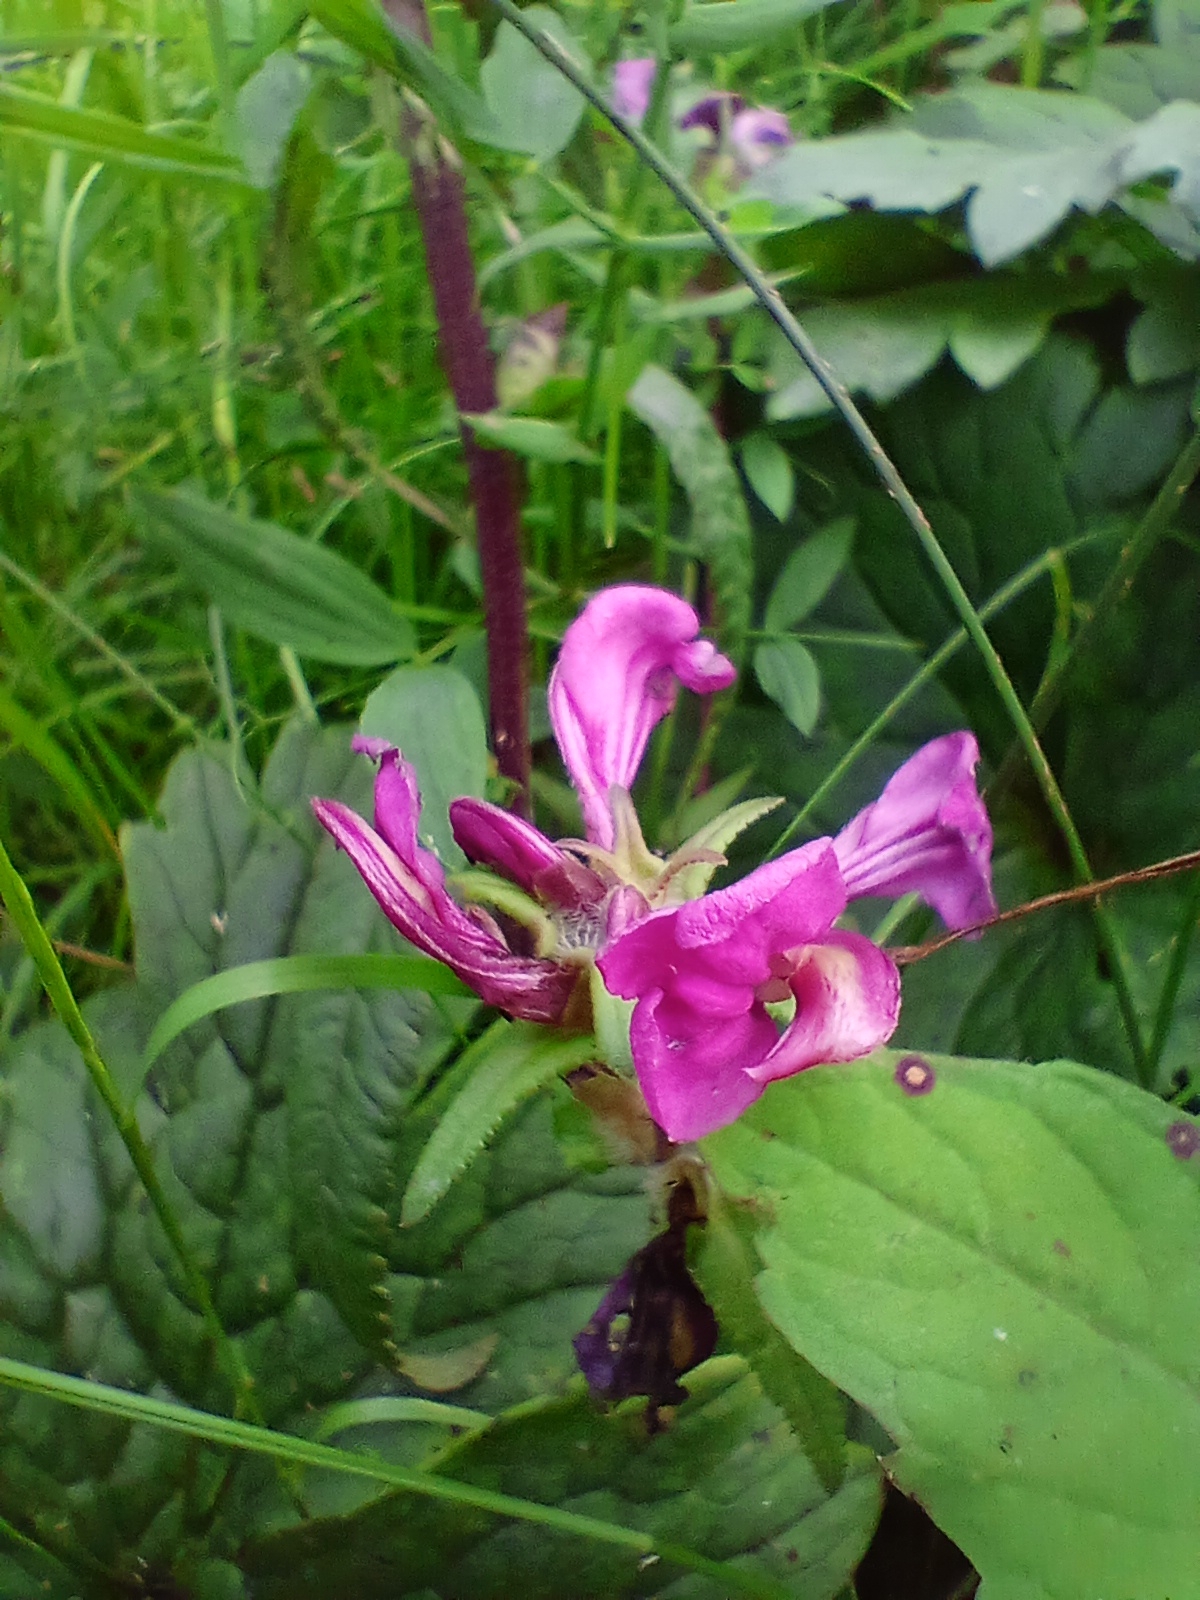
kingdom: Plantae
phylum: Tracheophyta
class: Magnoliopsida
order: Lamiales
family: Orobanchaceae
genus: Pedicularis
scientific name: Pedicularis resupinata
